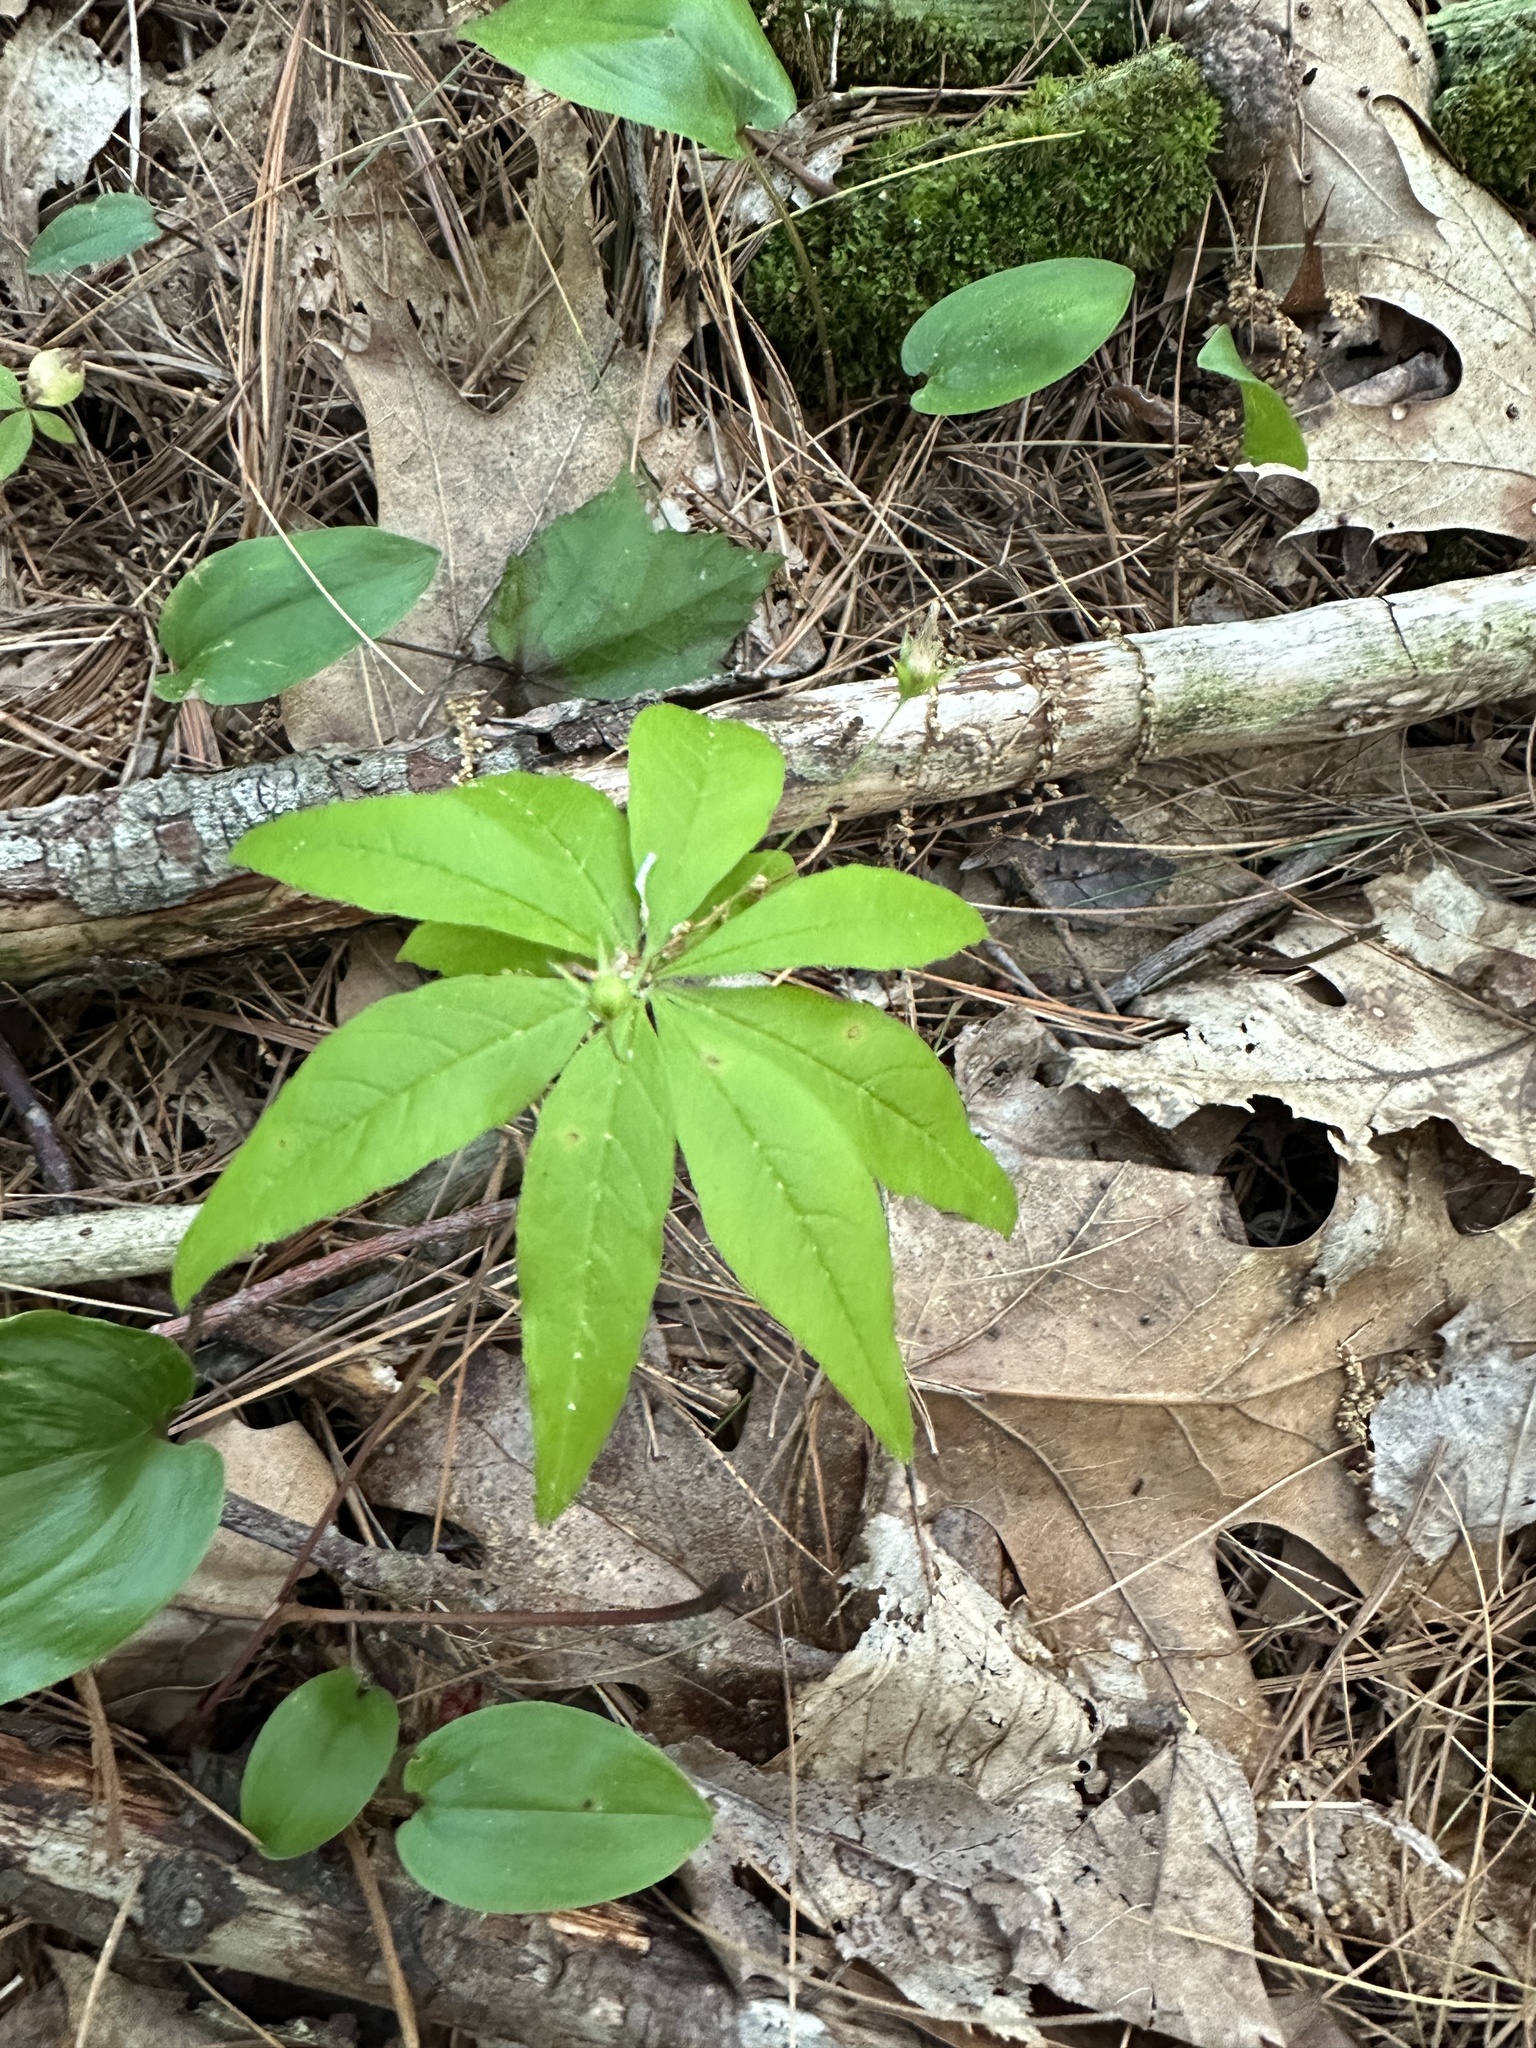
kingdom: Plantae
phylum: Tracheophyta
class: Magnoliopsida
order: Ericales
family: Primulaceae
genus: Lysimachia
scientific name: Lysimachia borealis
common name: American starflower
